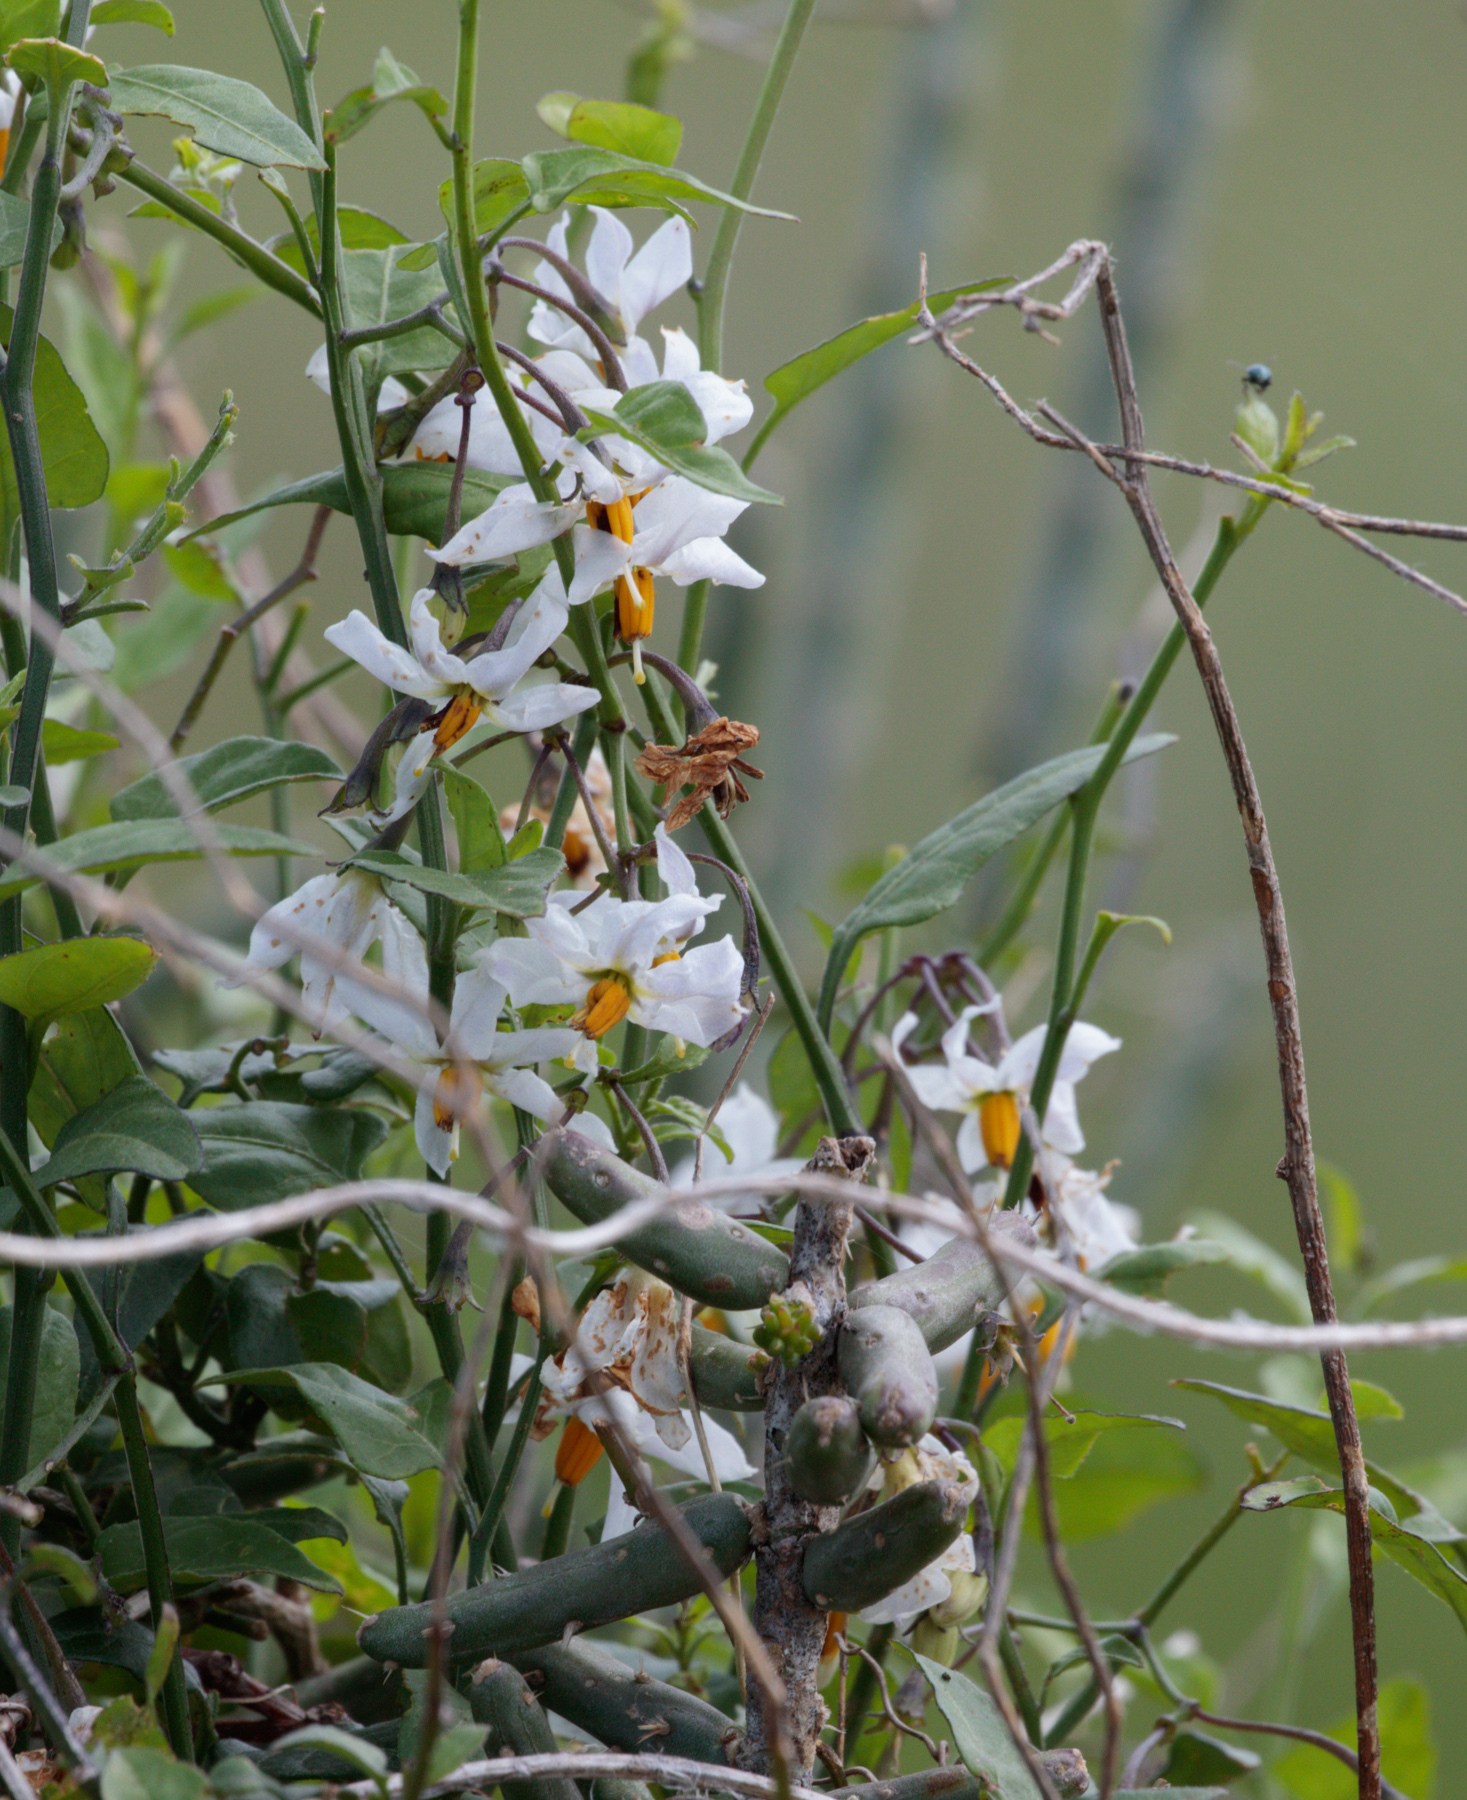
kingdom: Plantae
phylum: Tracheophyta
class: Magnoliopsida
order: Solanales
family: Solanaceae
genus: Solanum
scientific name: Solanum triquetrum
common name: Texas nightshade
